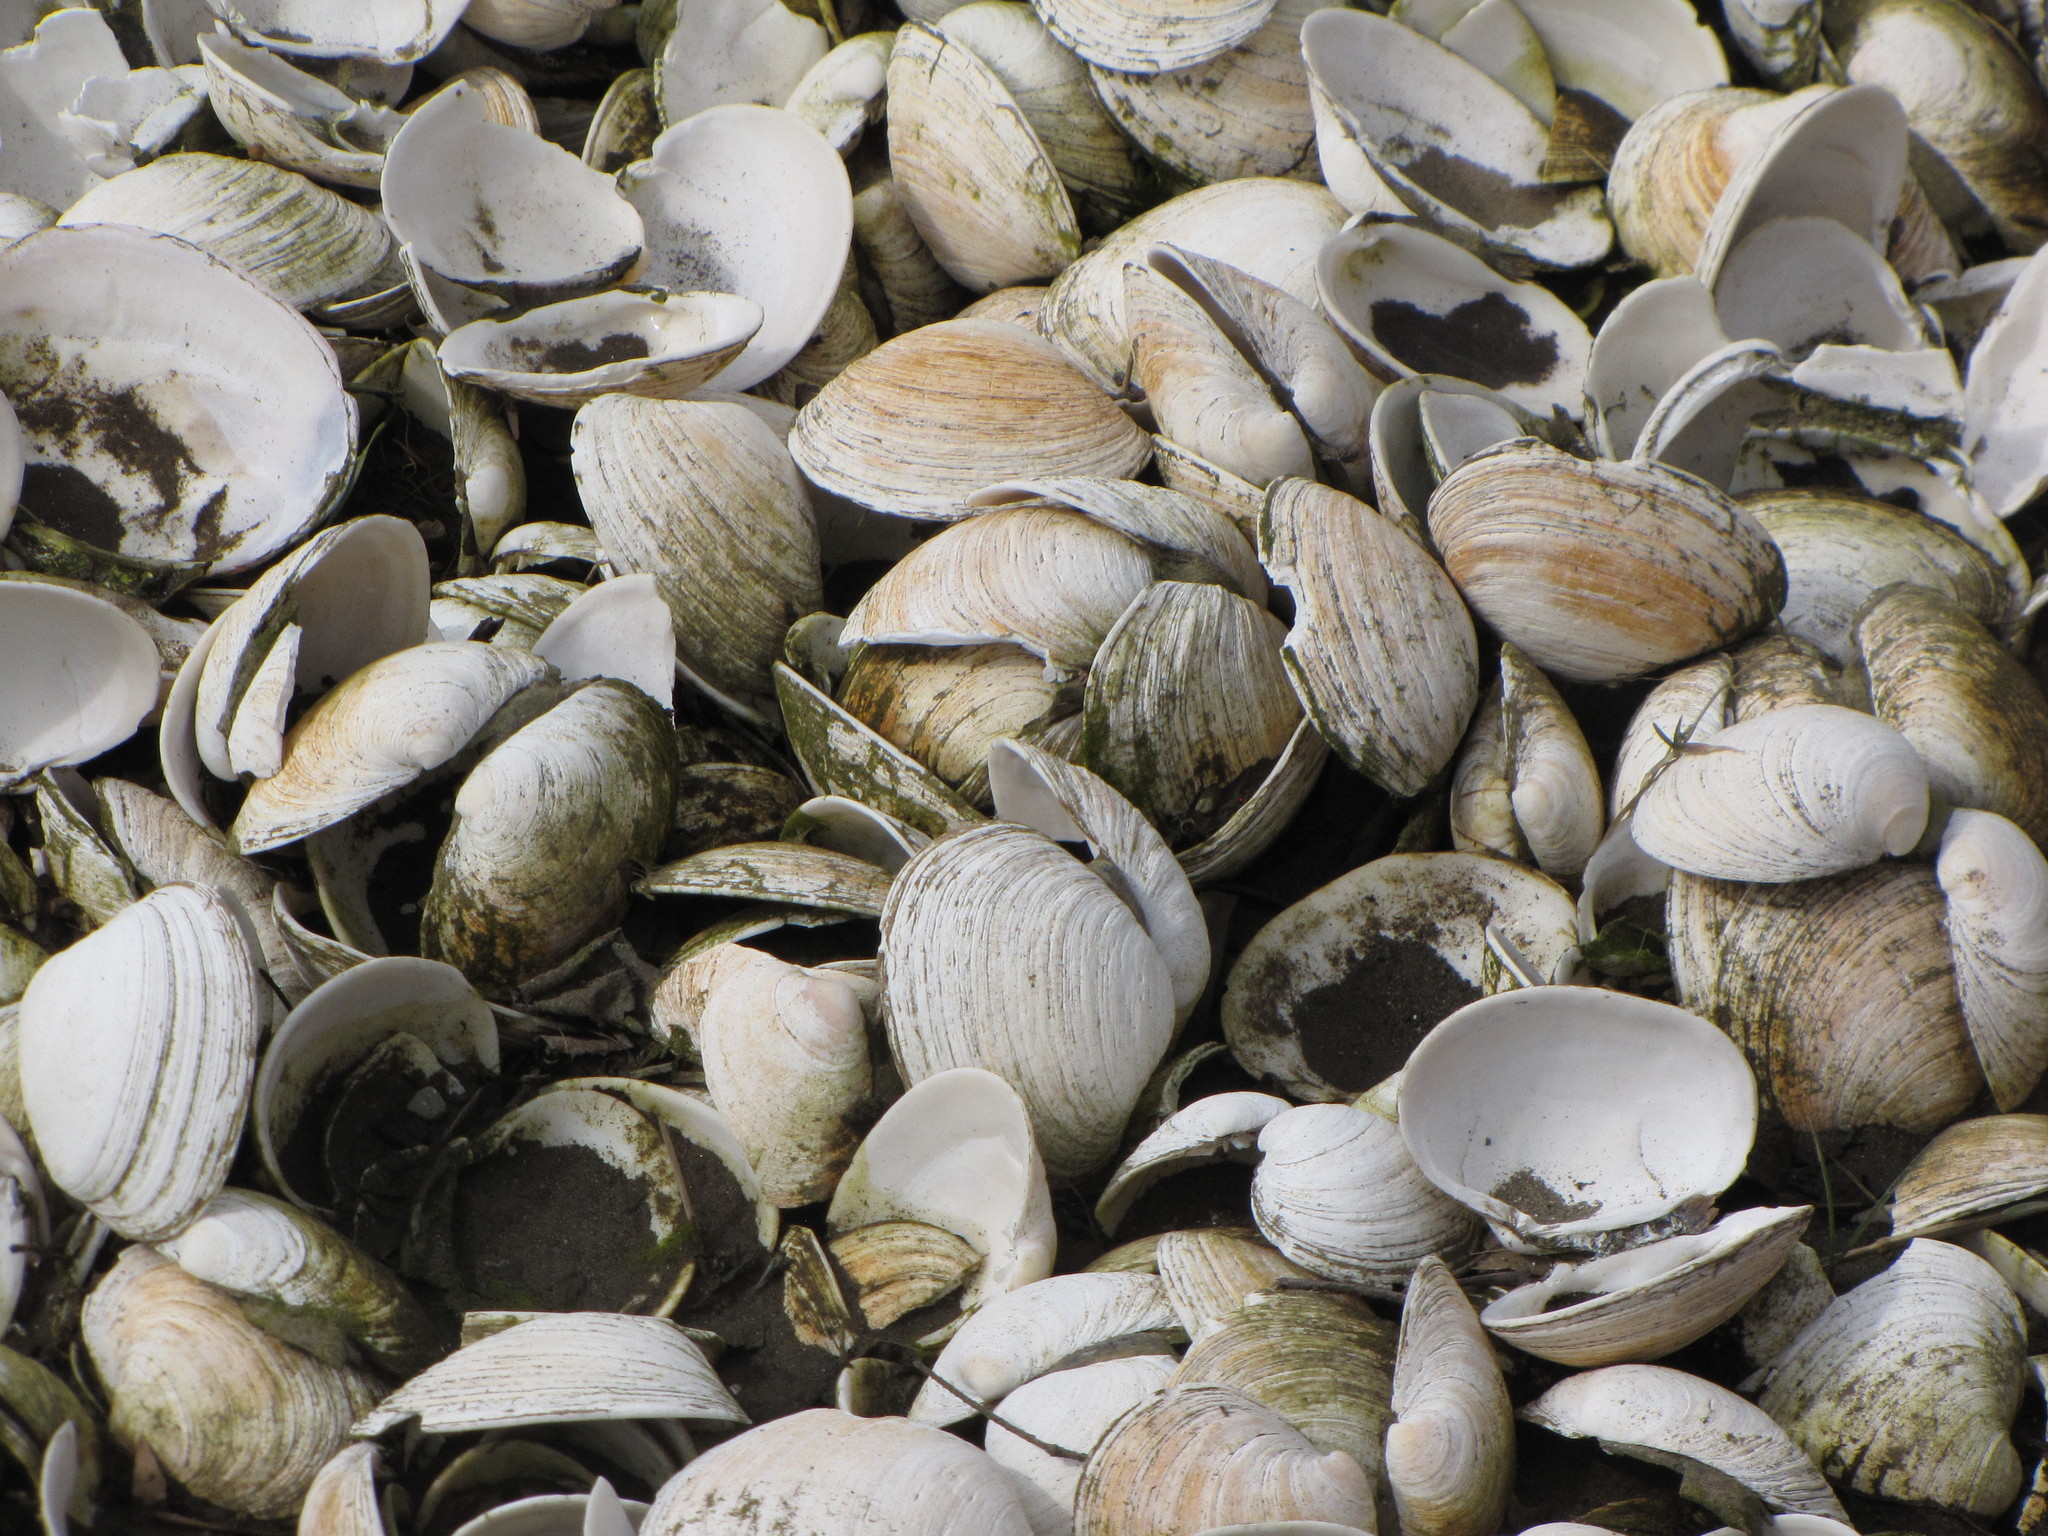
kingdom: Animalia
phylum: Mollusca
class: Bivalvia
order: Venerida
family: Veneridae
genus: Saxidomus
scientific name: Saxidomus gigantea
